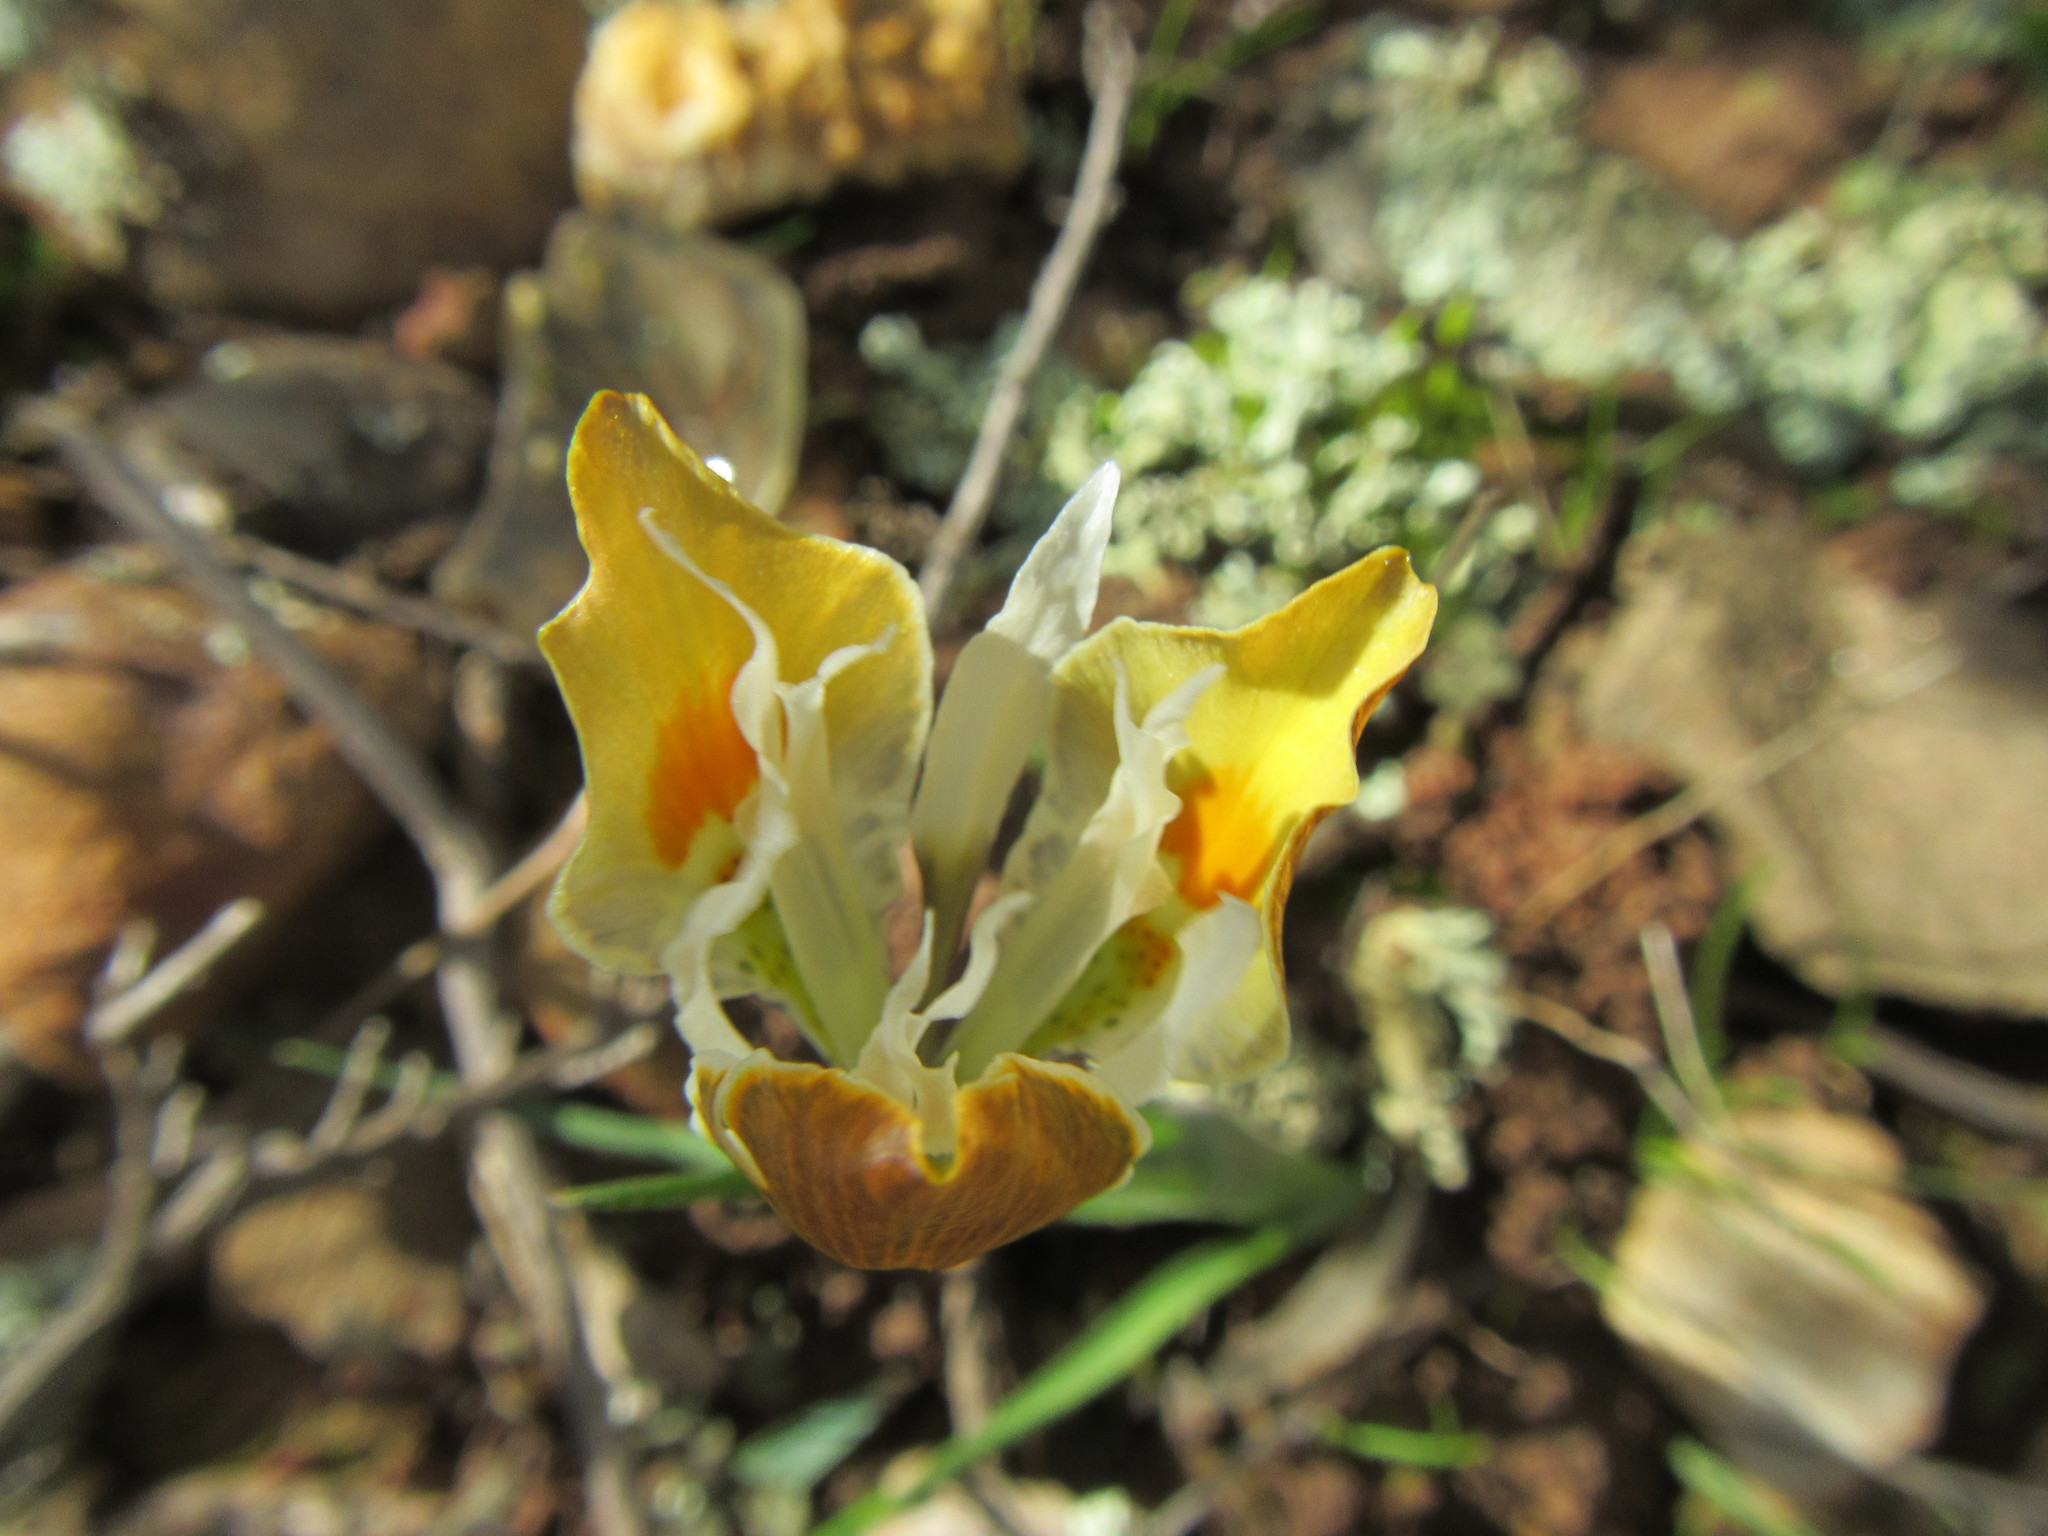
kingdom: Plantae
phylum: Tracheophyta
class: Liliopsida
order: Asparagales
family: Iridaceae
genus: Moraea
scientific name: Moraea ciliata
